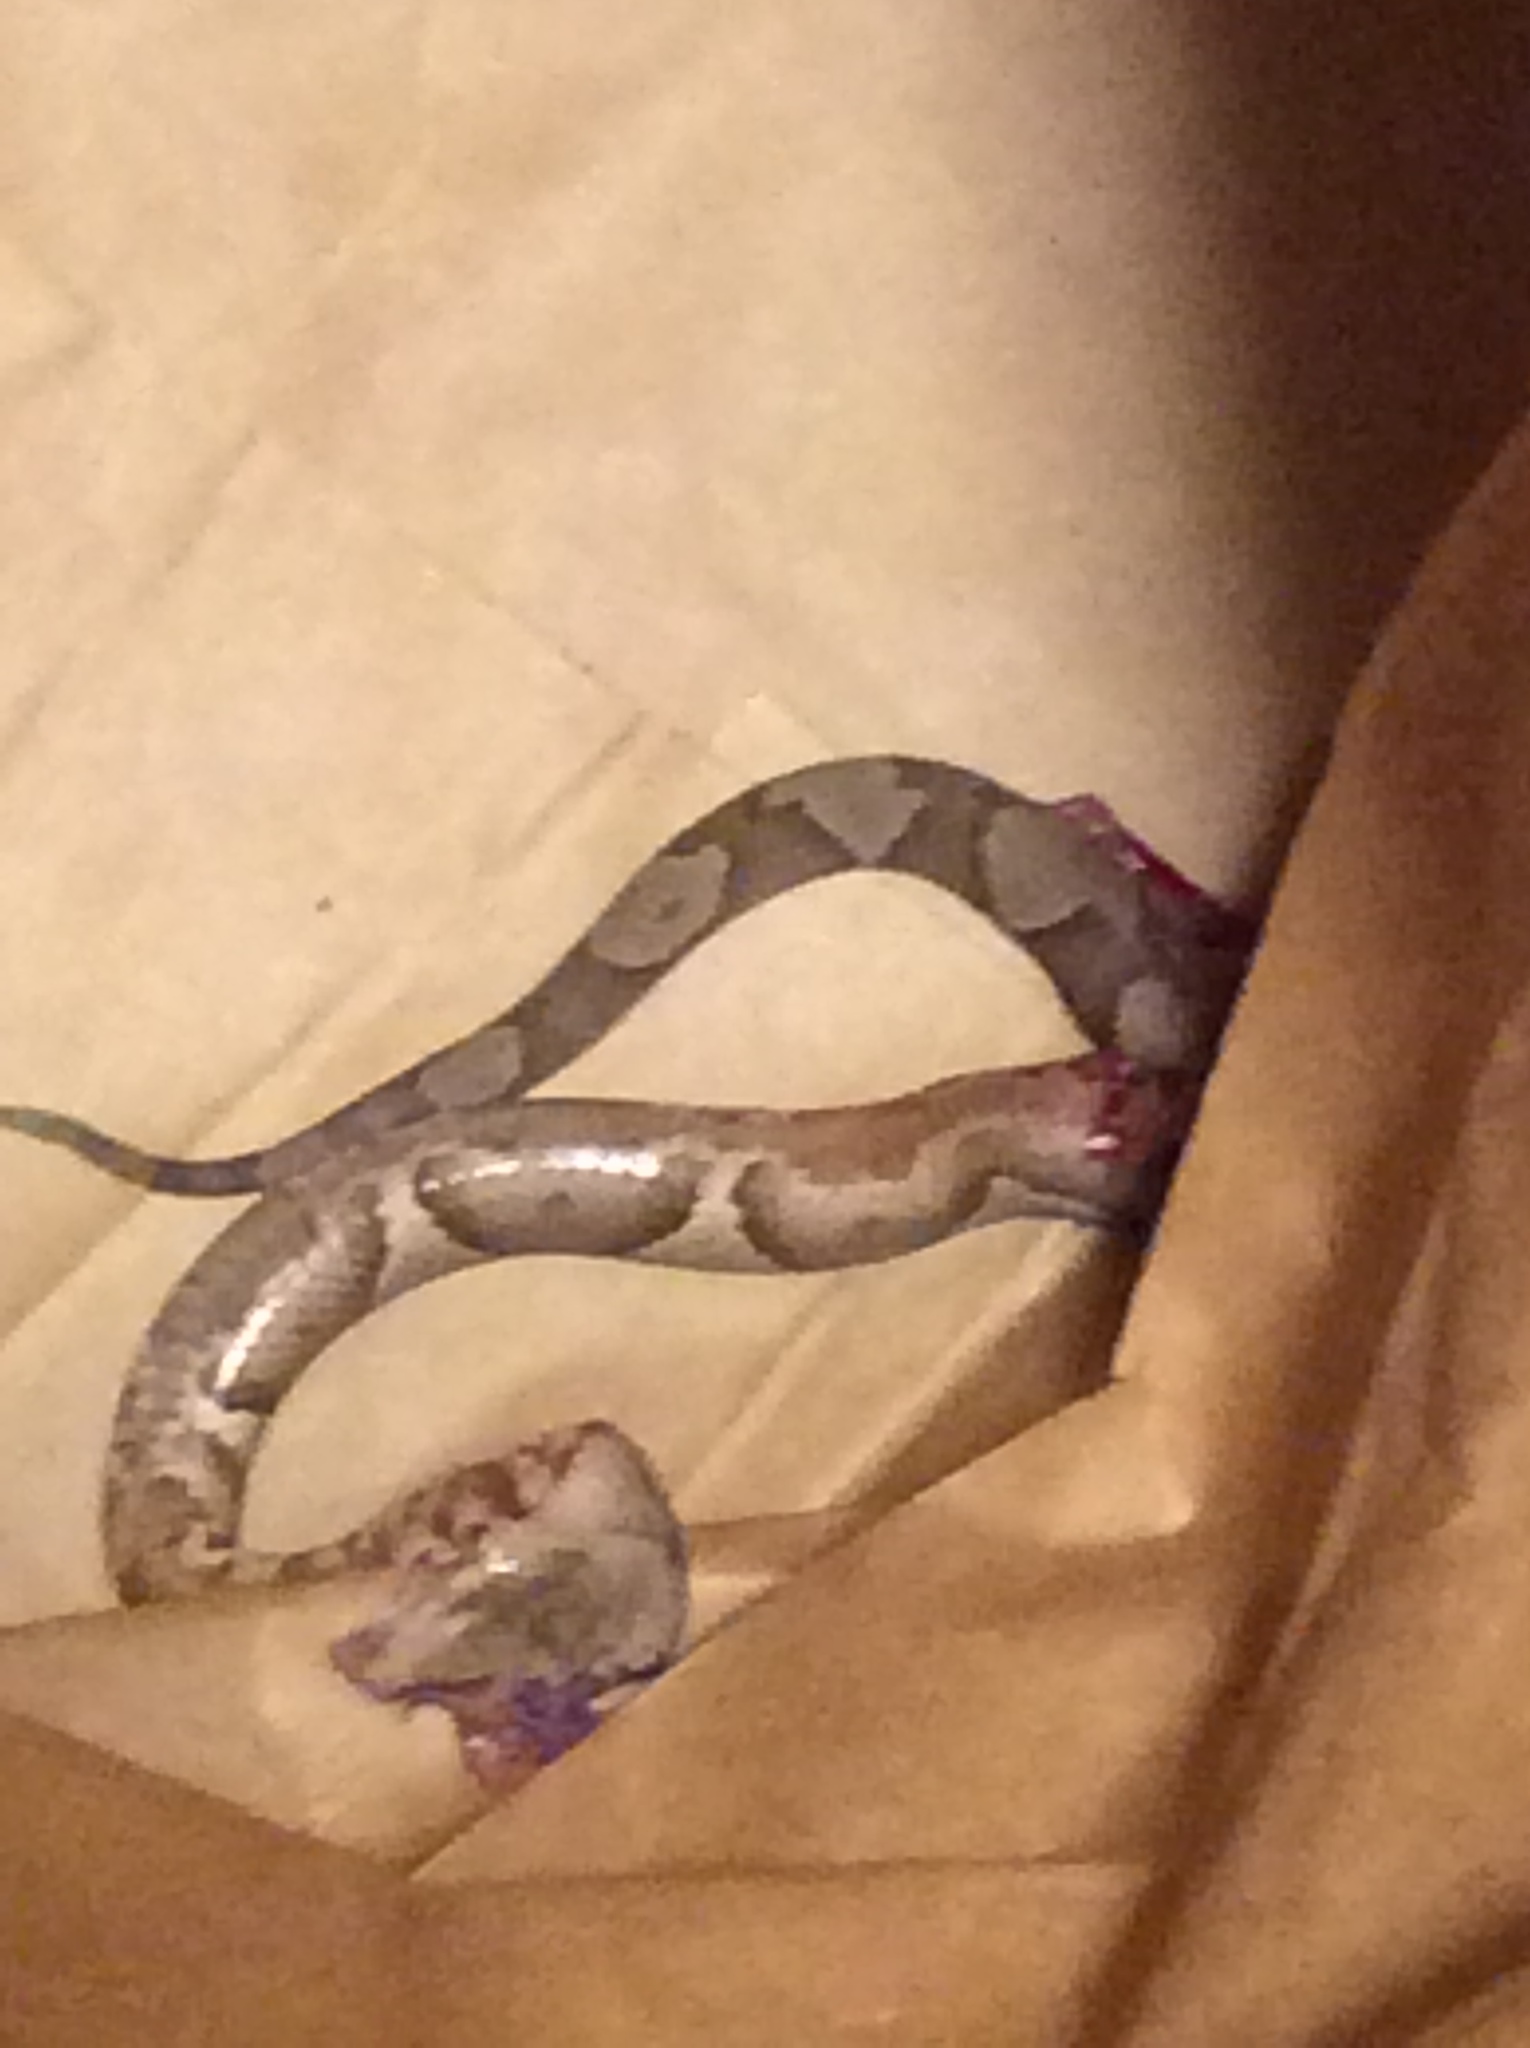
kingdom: Animalia
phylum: Chordata
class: Squamata
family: Viperidae
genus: Agkistrodon
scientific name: Agkistrodon laticinctus
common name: Broad-banded copperhead
